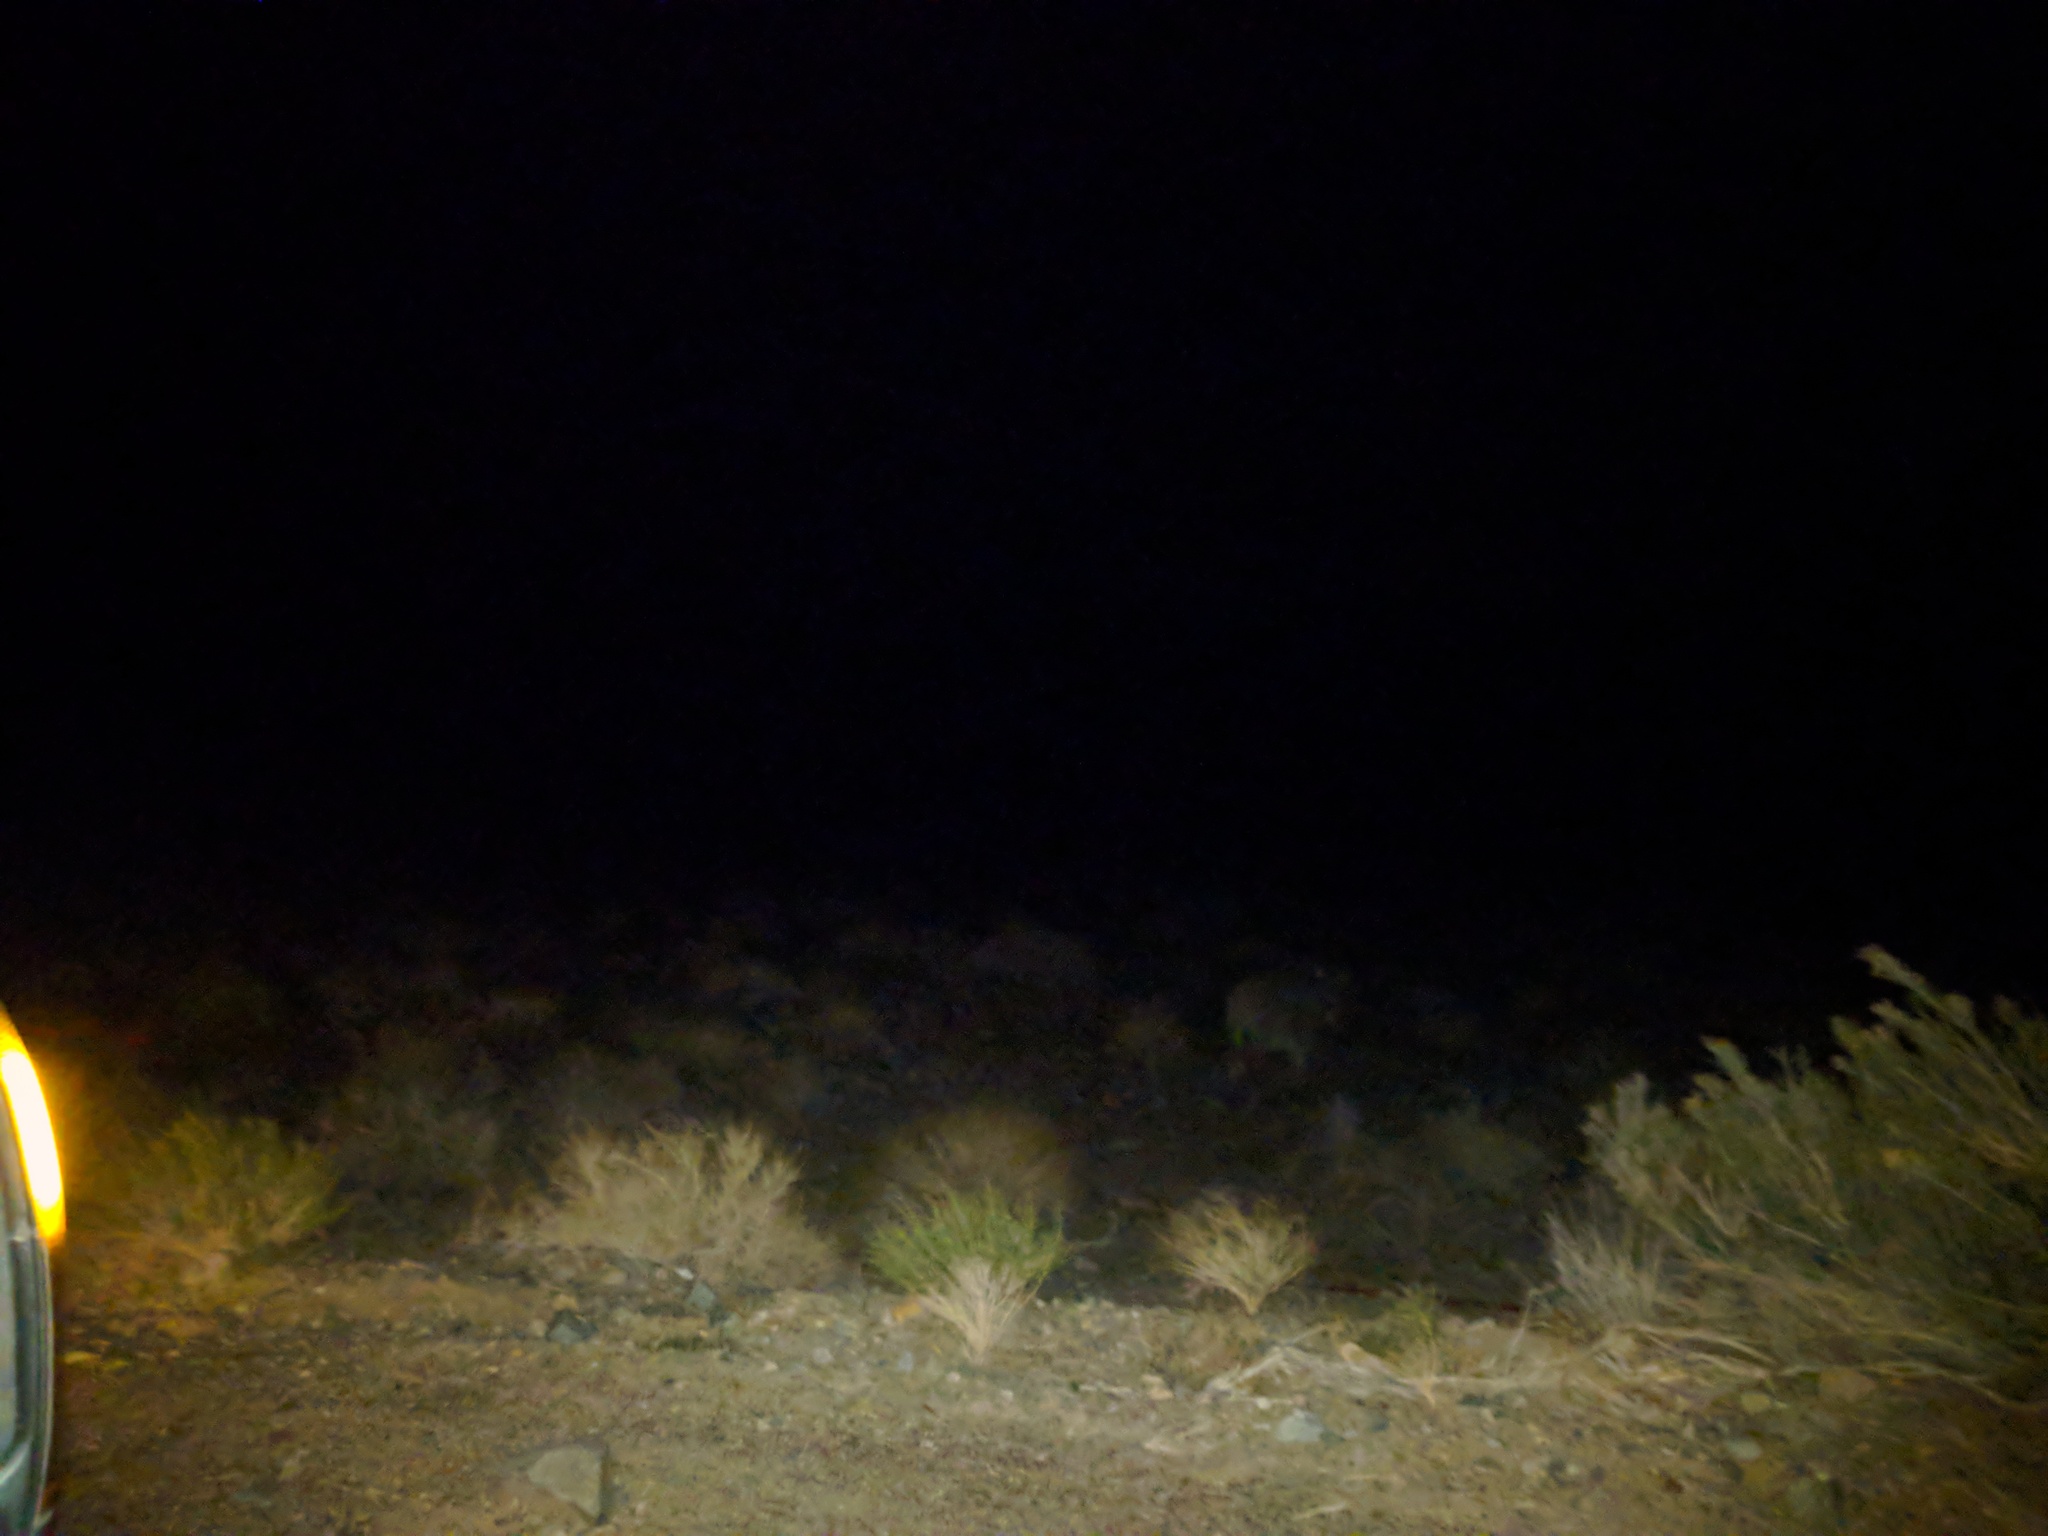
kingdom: Animalia
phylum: Chordata
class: Mammalia
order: Perissodactyla
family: Equidae
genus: Equus
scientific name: Equus asinus
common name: Ass
